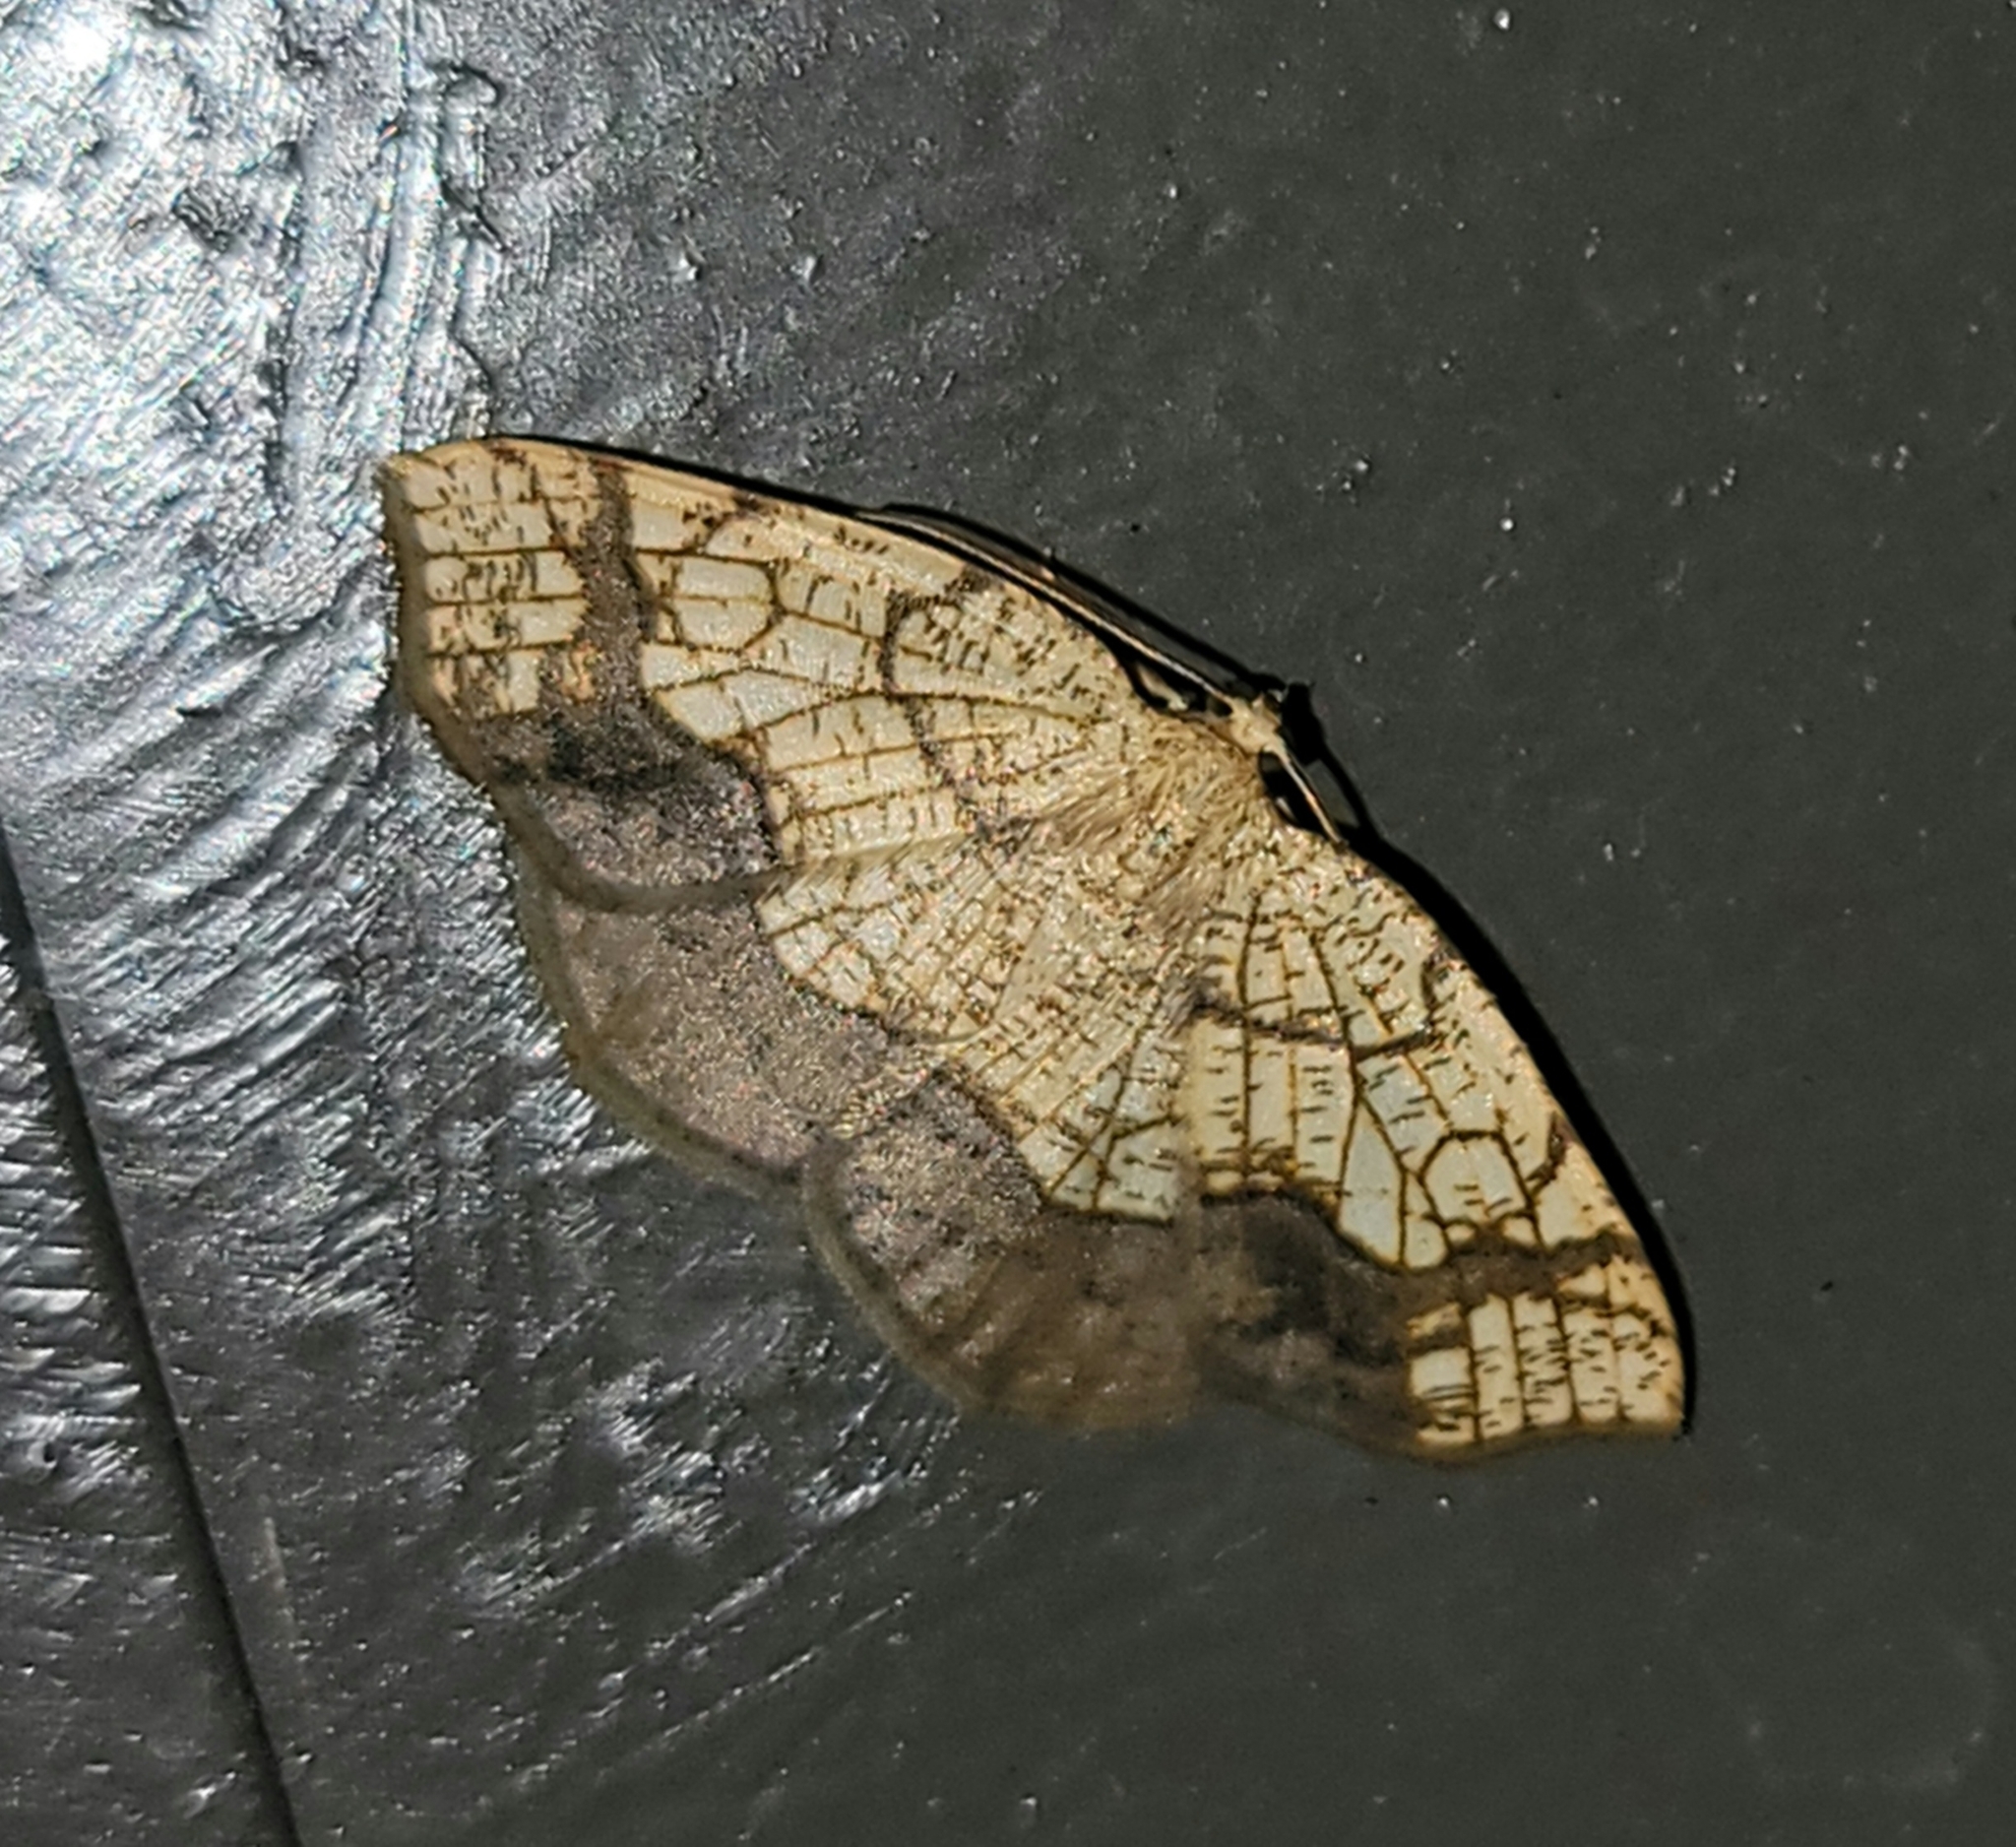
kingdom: Animalia
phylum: Arthropoda
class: Insecta
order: Lepidoptera
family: Geometridae
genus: Nematocampa
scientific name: Nematocampa resistaria
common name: Horned spanworm moth
